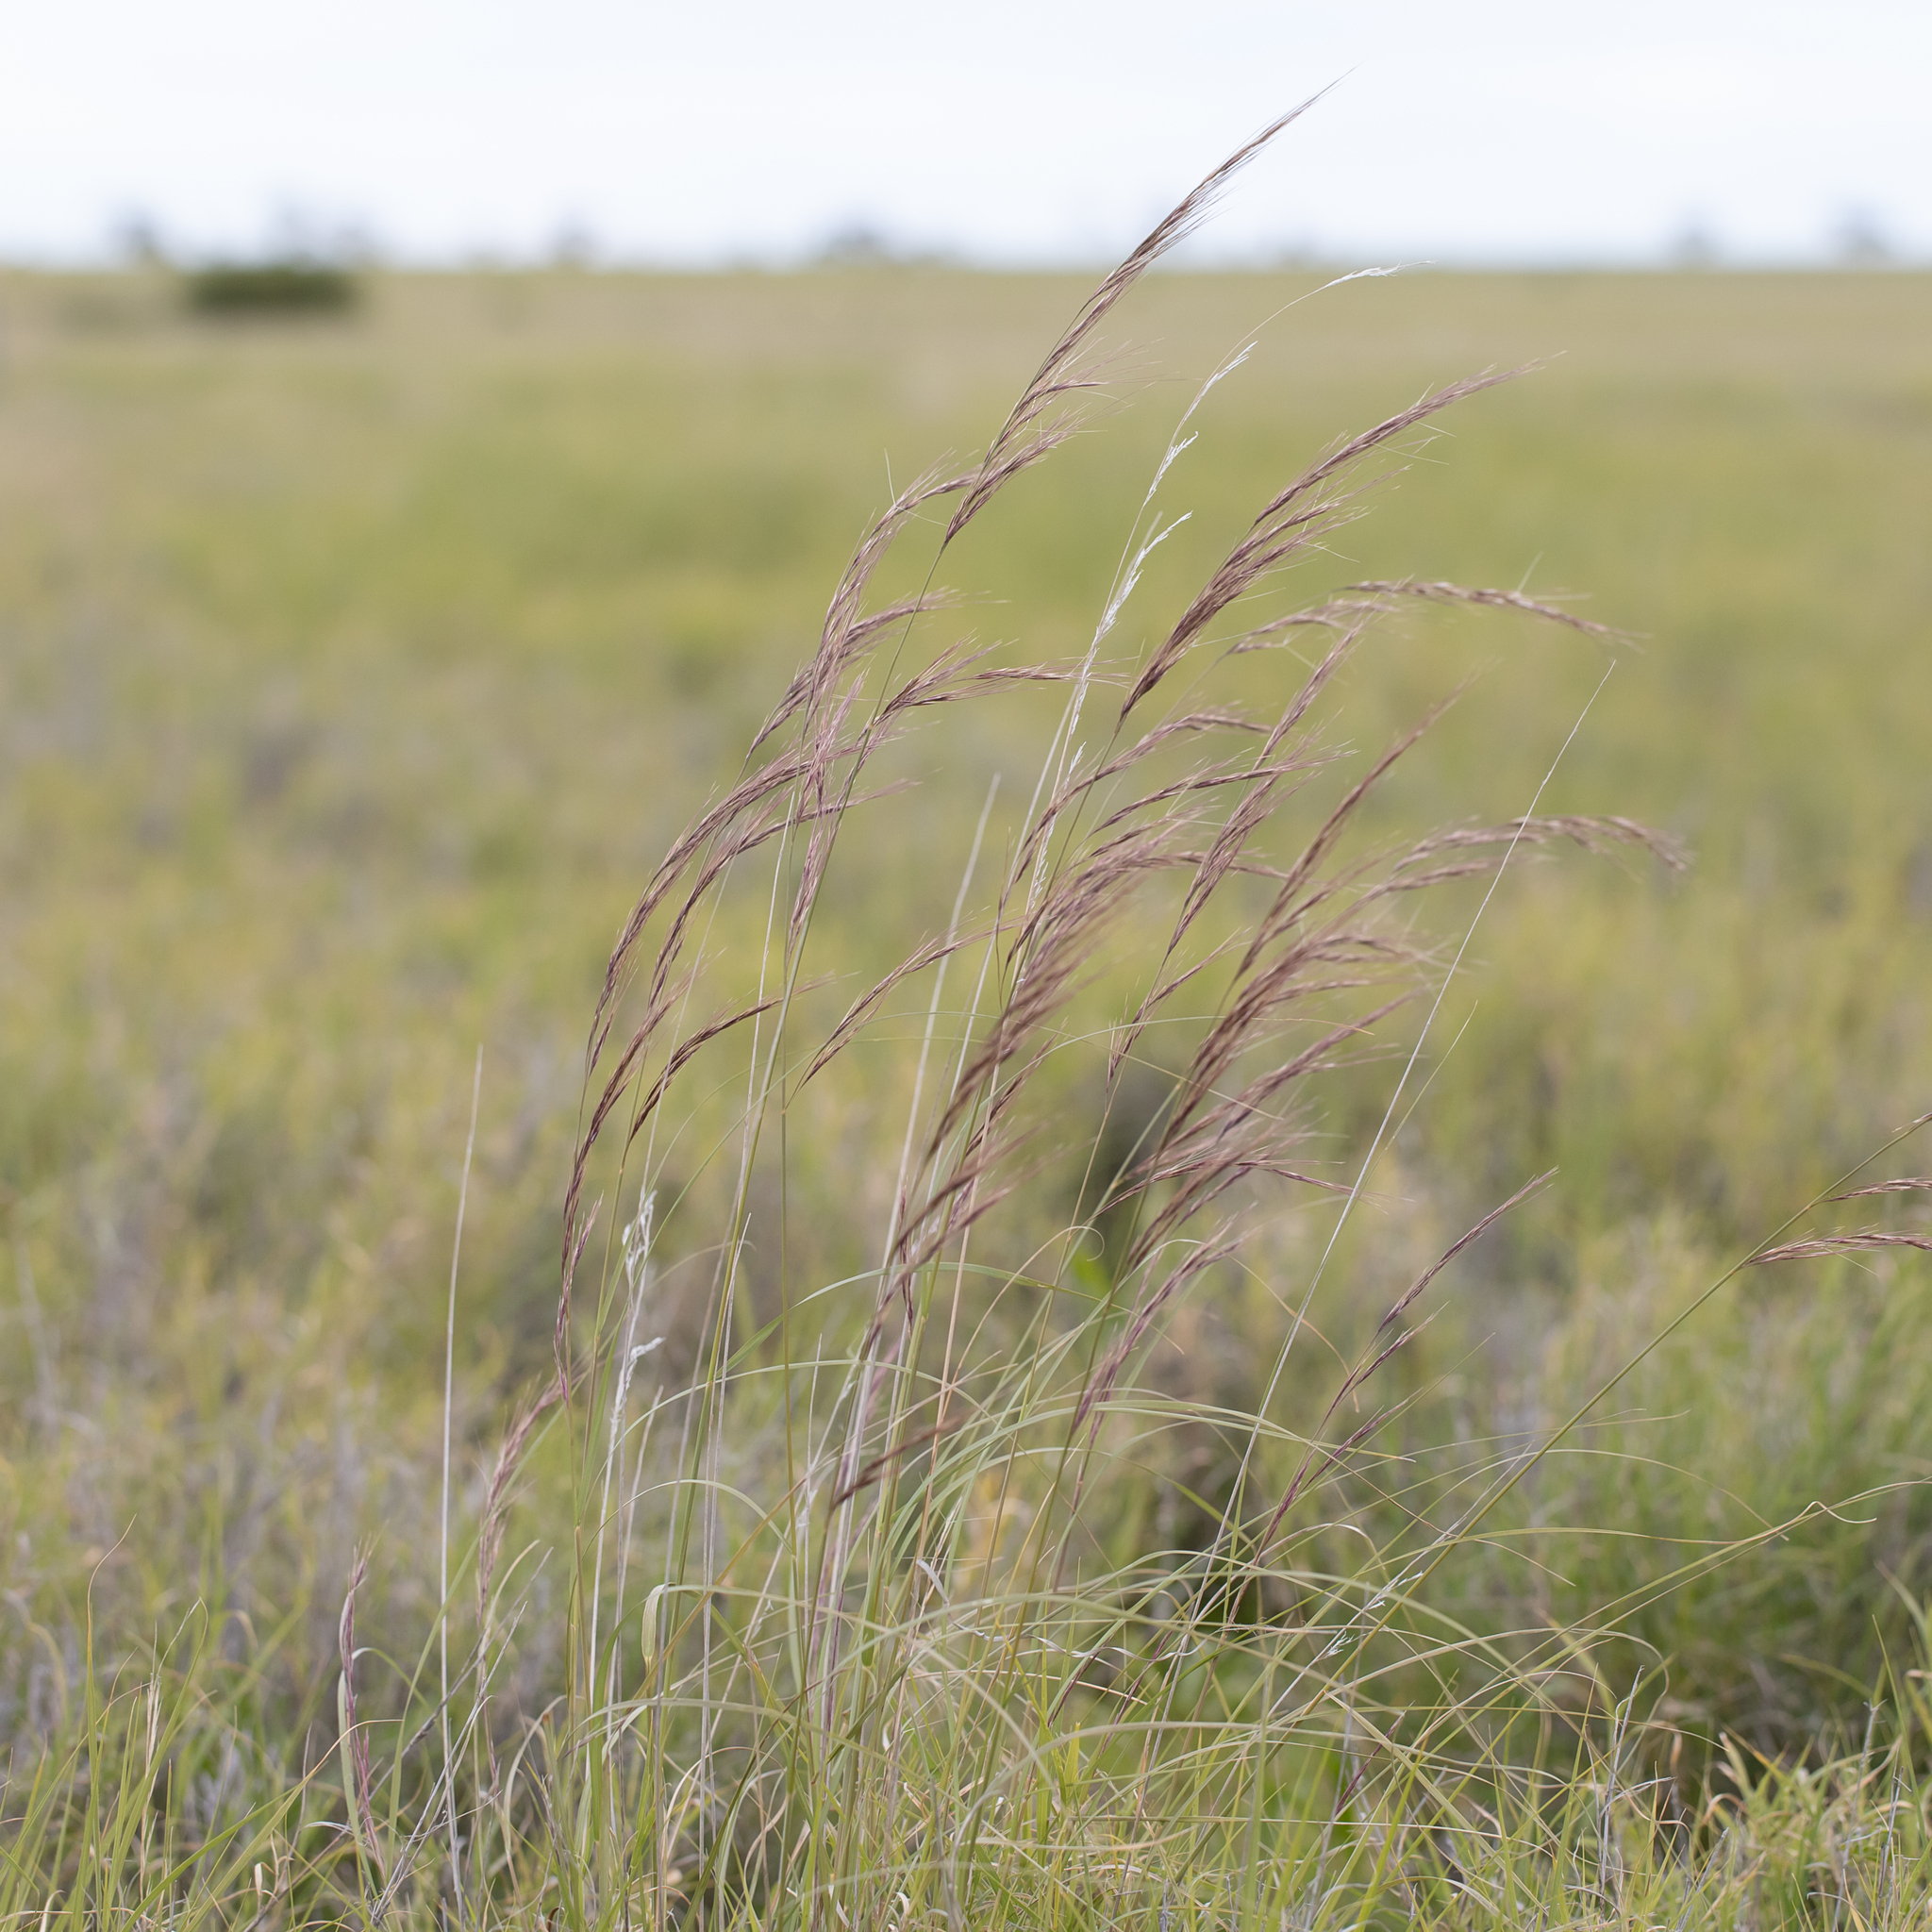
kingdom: Plantae
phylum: Tracheophyta
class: Liliopsida
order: Poales
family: Poaceae
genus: Aristida
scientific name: Aristida latifolia
